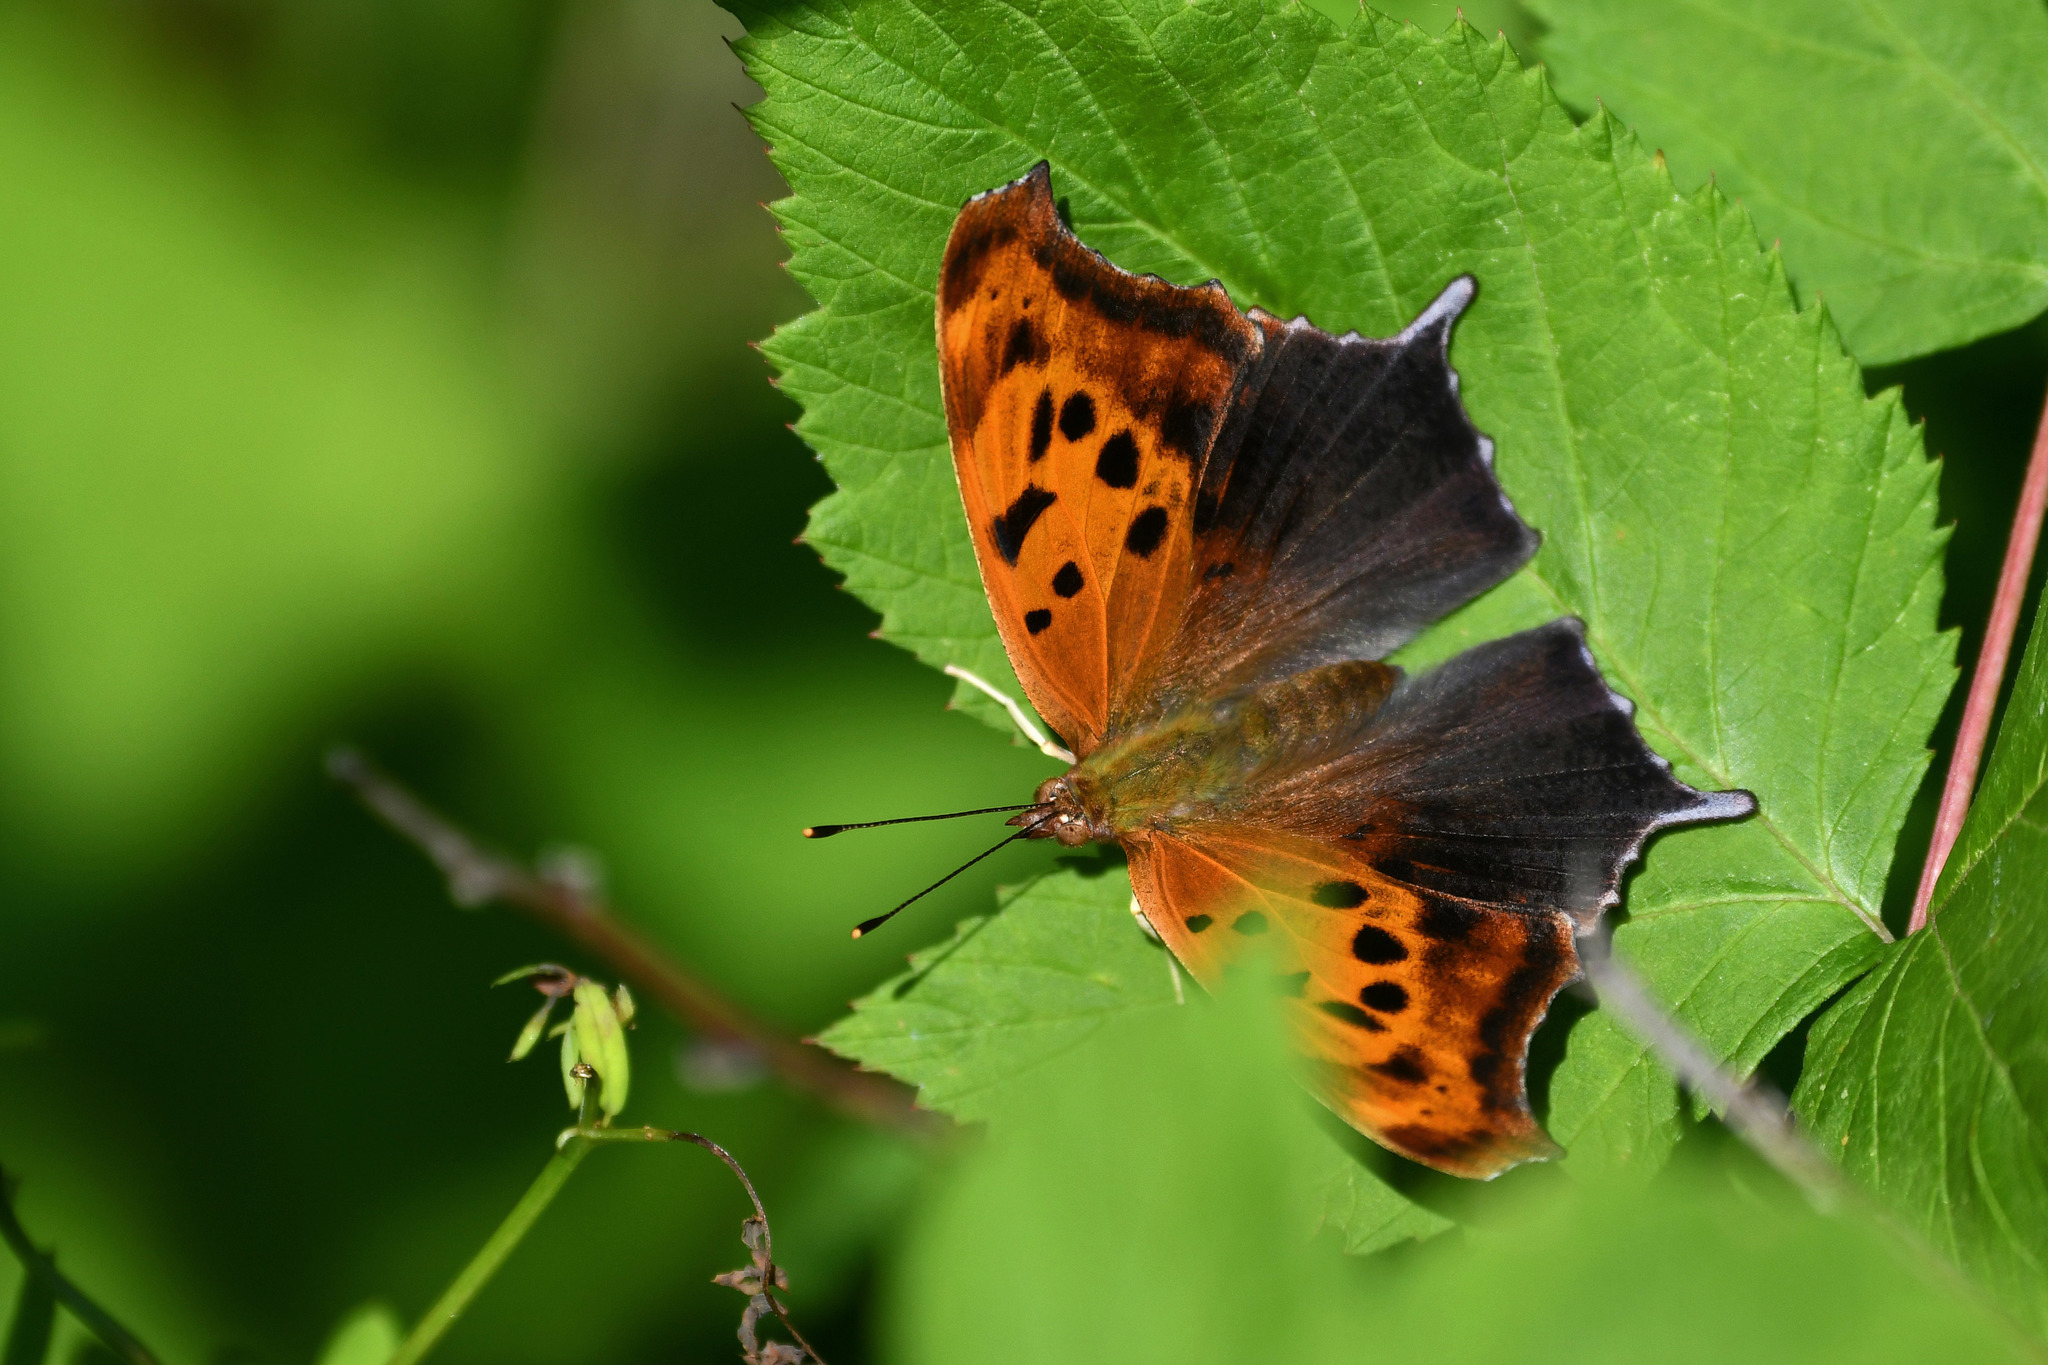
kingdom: Animalia
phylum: Arthropoda
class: Insecta
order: Lepidoptera
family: Nymphalidae
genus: Polygonia
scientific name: Polygonia interrogationis
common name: Question mark
